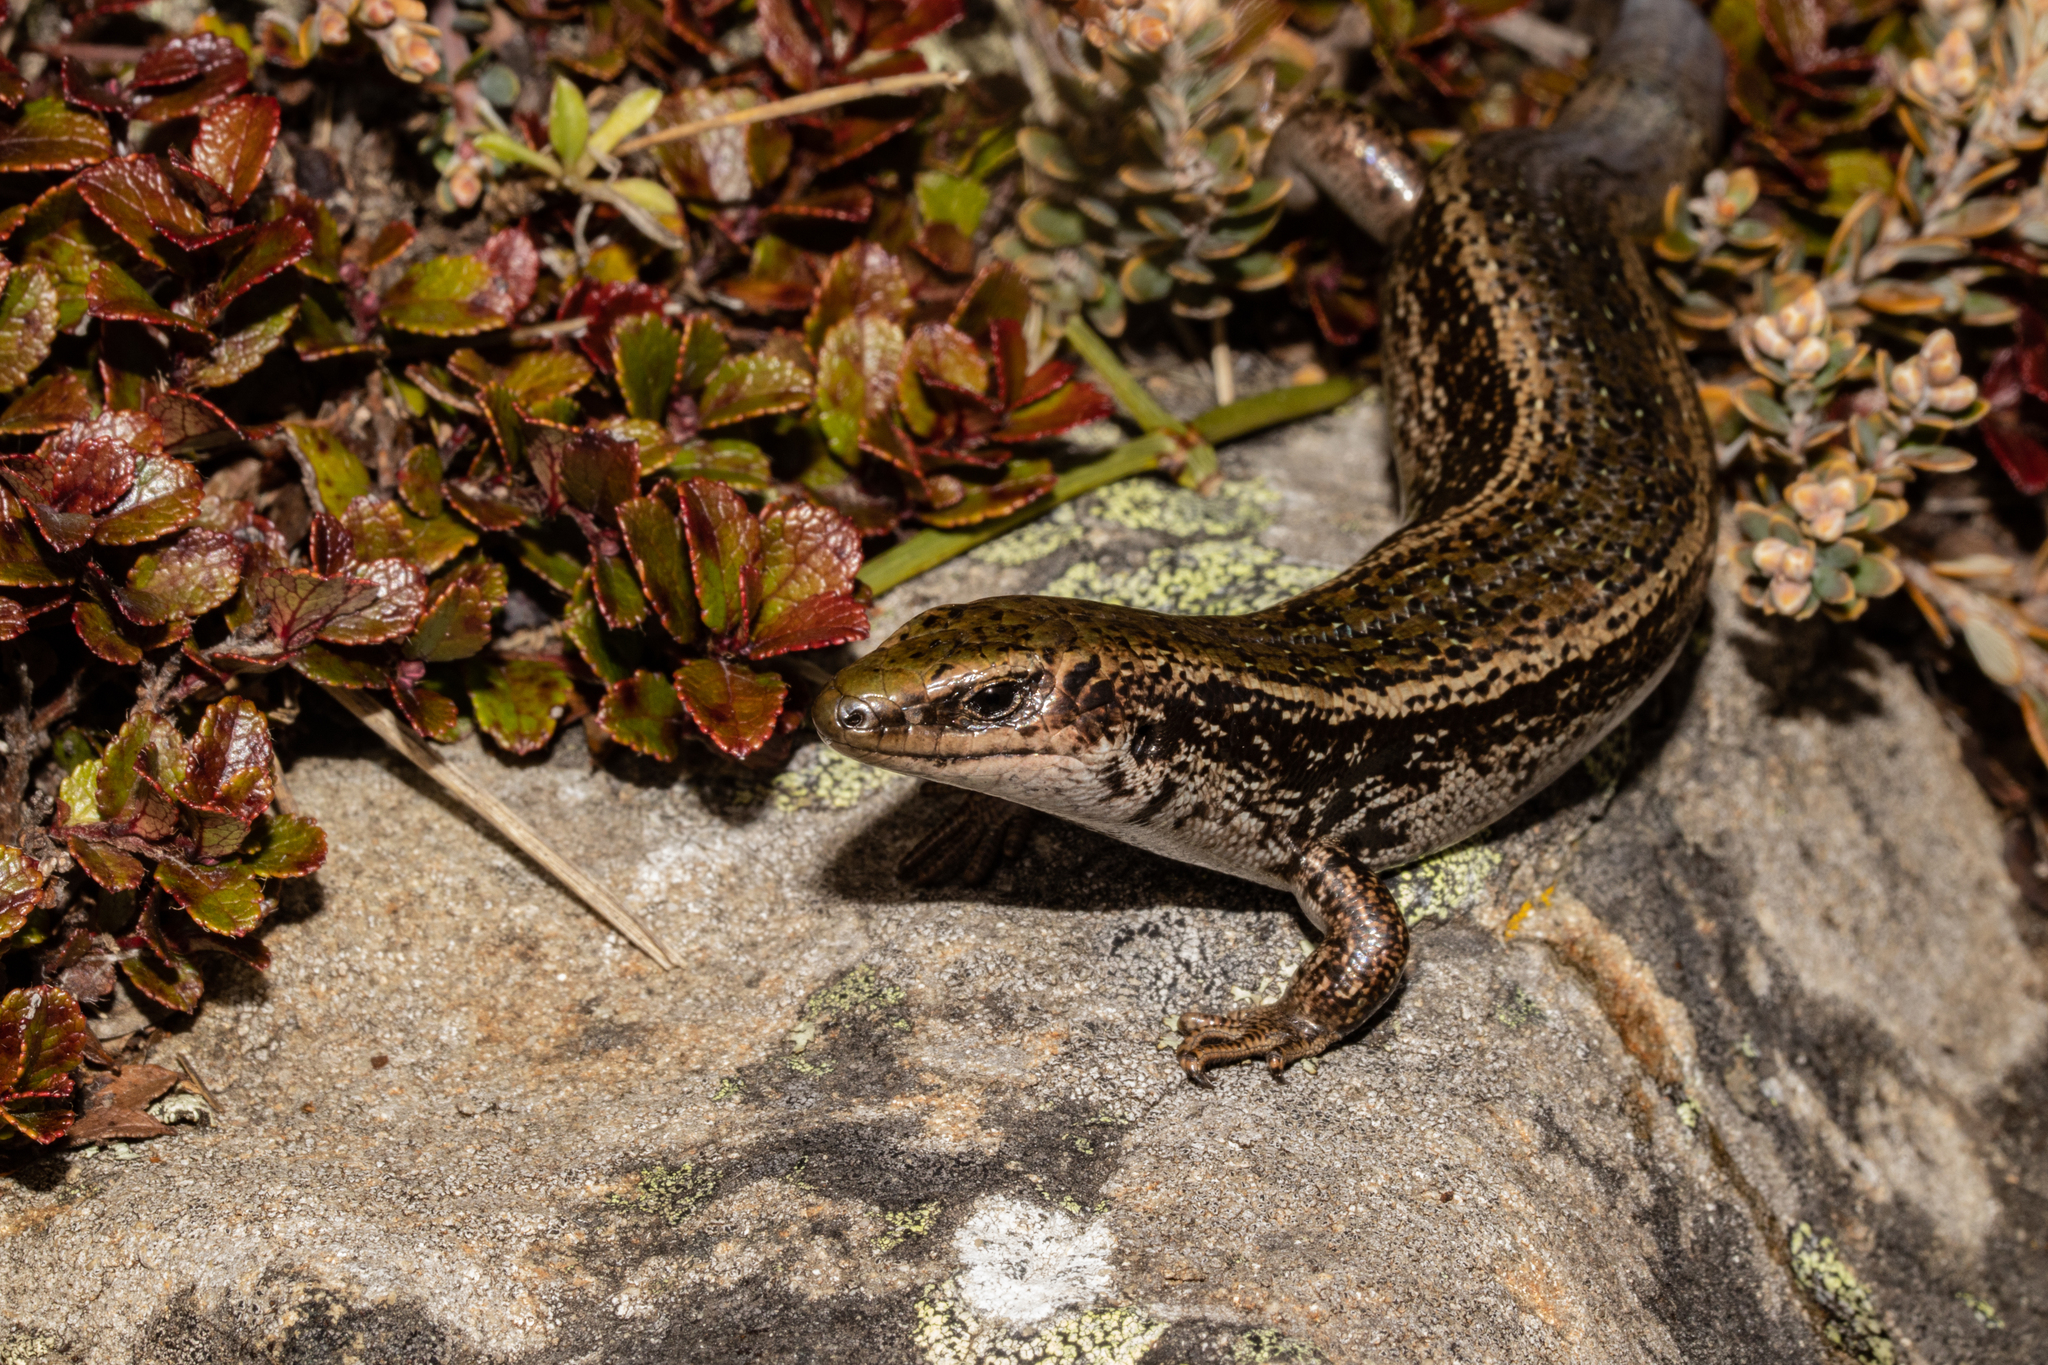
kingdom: Animalia
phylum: Chordata
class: Squamata
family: Scincidae
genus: Oligosoma
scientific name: Oligosoma chloronoton
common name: Green skink
